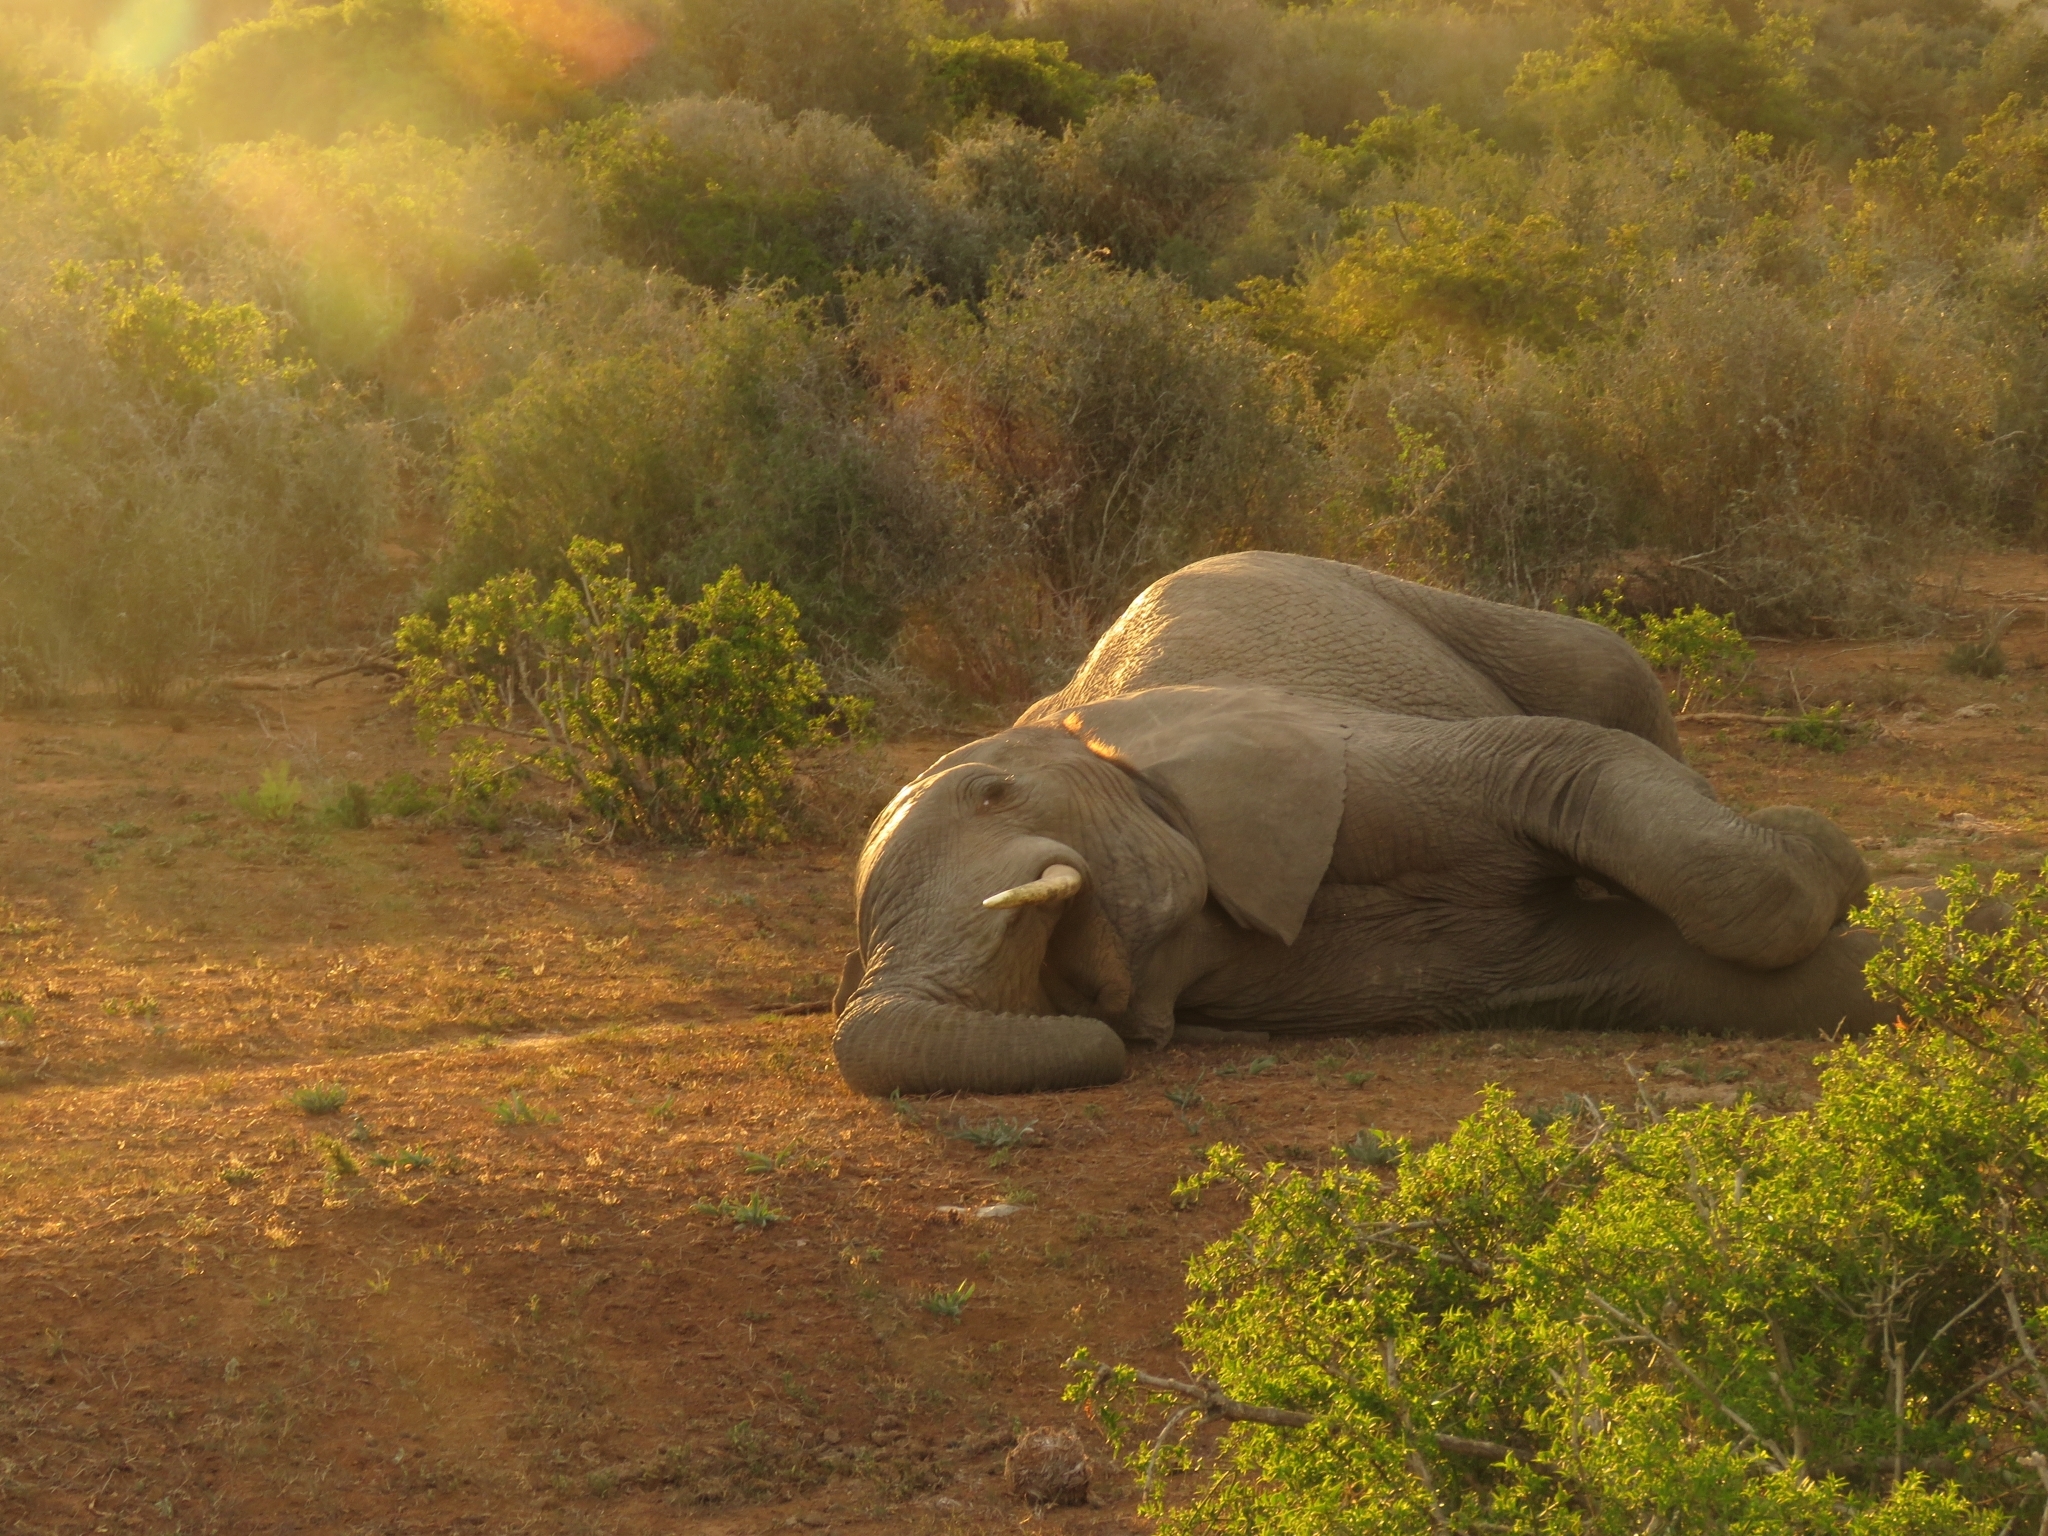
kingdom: Animalia
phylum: Chordata
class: Mammalia
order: Proboscidea
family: Elephantidae
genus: Loxodonta
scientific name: Loxodonta africana
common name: African elephant
